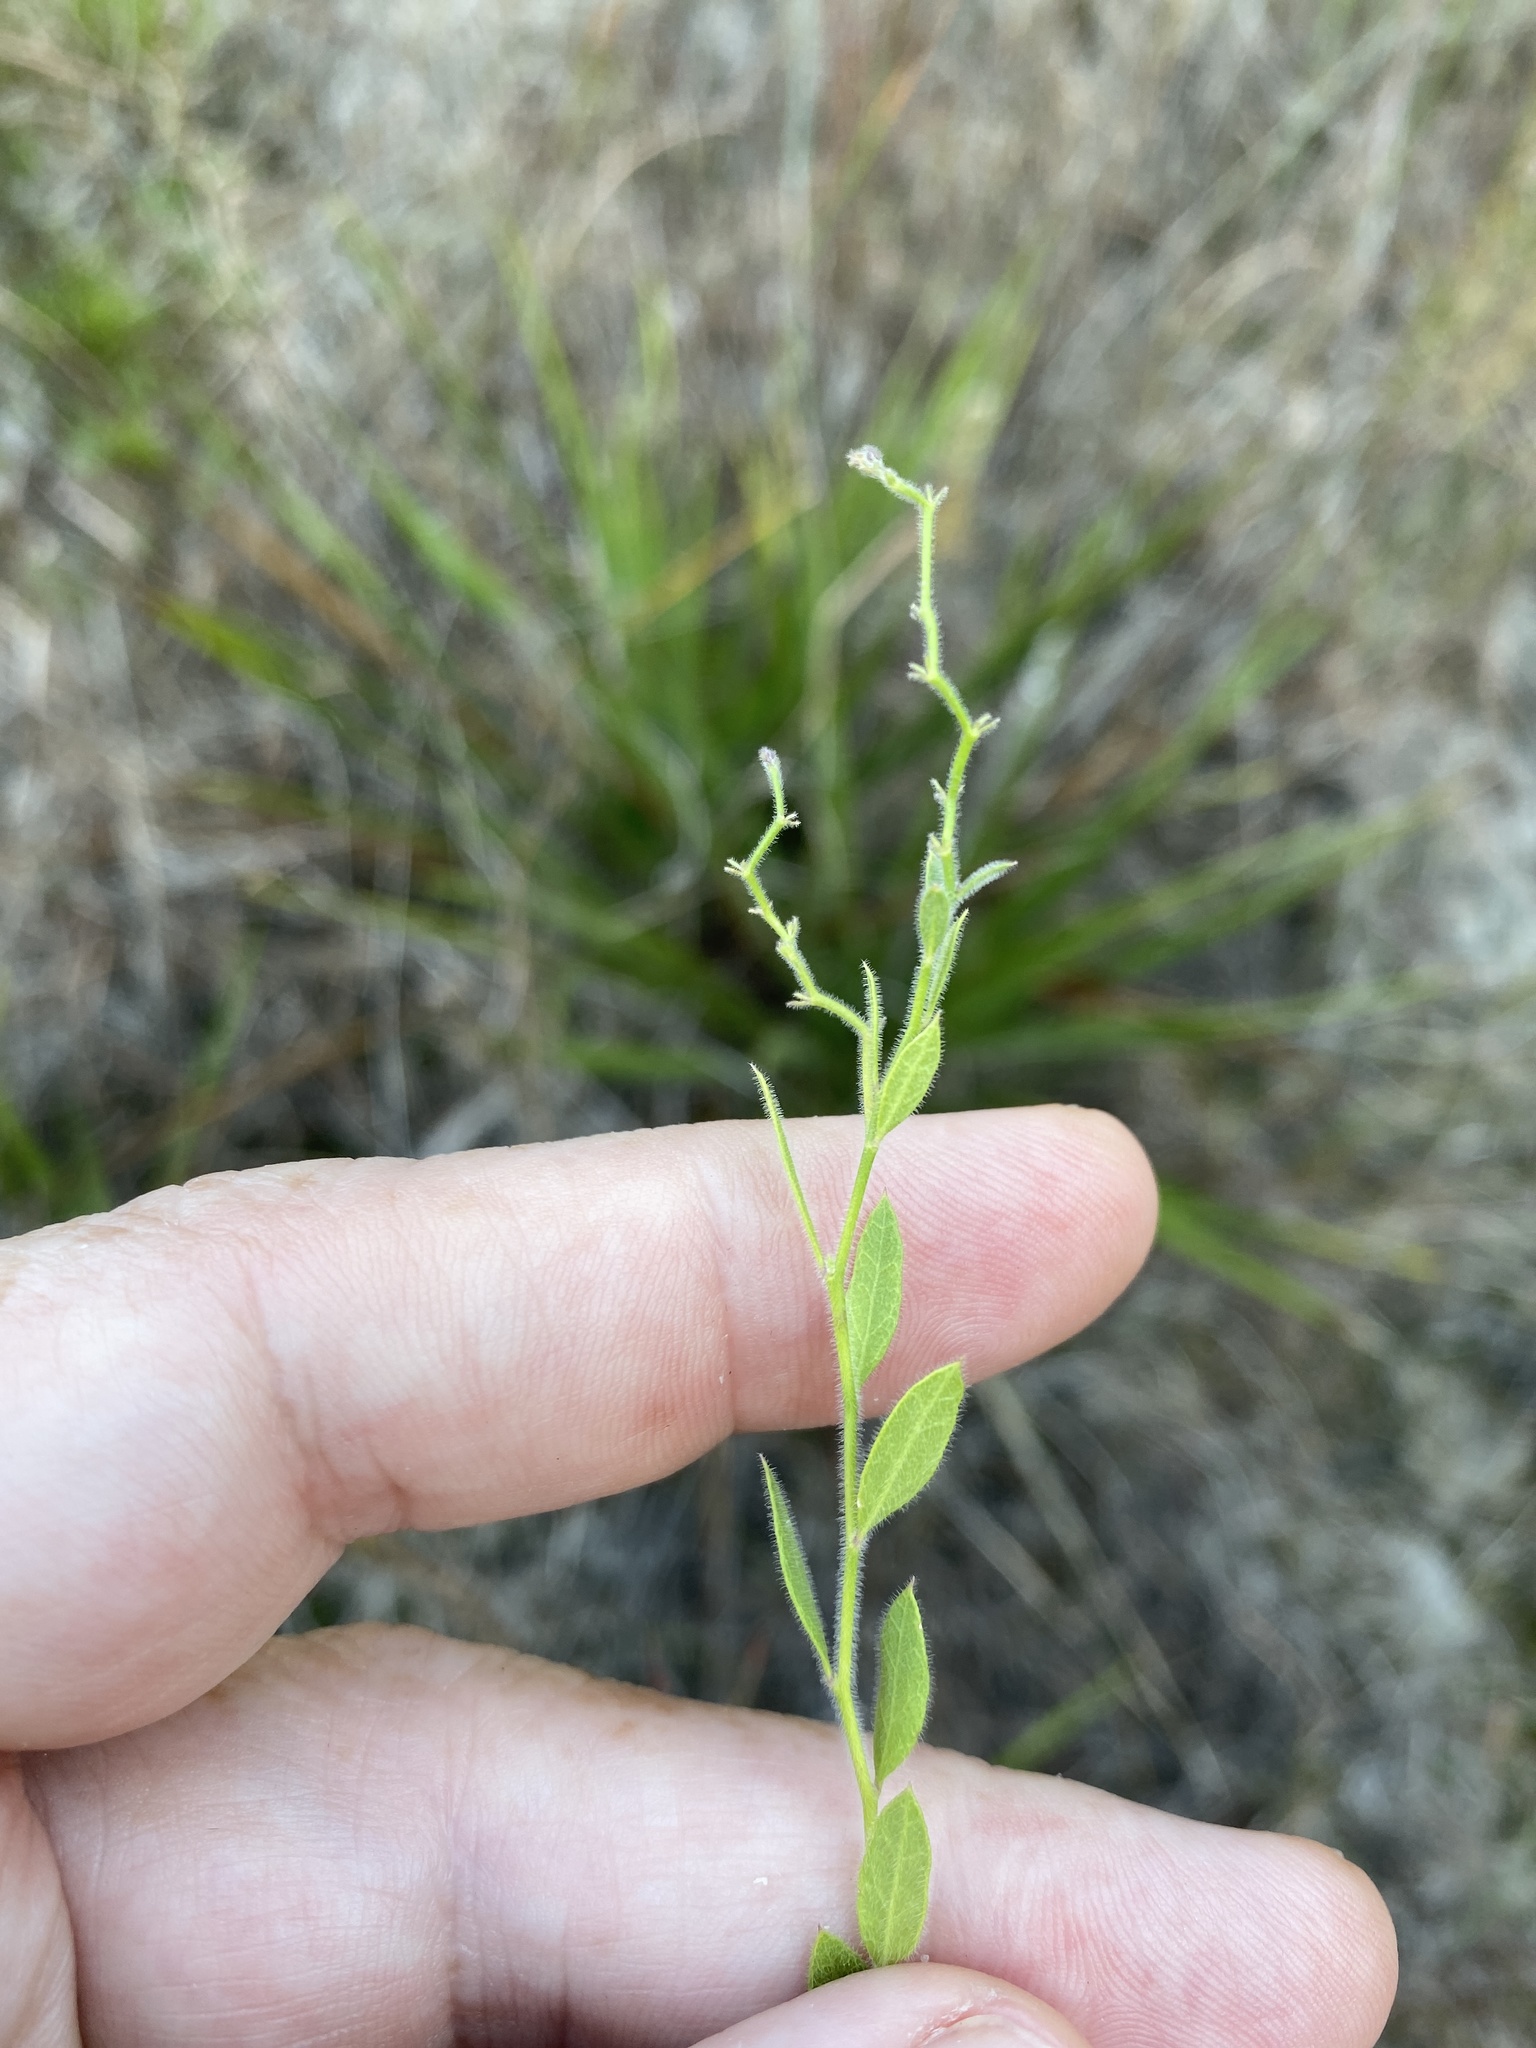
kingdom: Plantae
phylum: Tracheophyta
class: Magnoliopsida
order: Fabales
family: Polygalaceae
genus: Rhinotropis
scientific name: Rhinotropis lindheimeri
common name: Shrubby milkwort
